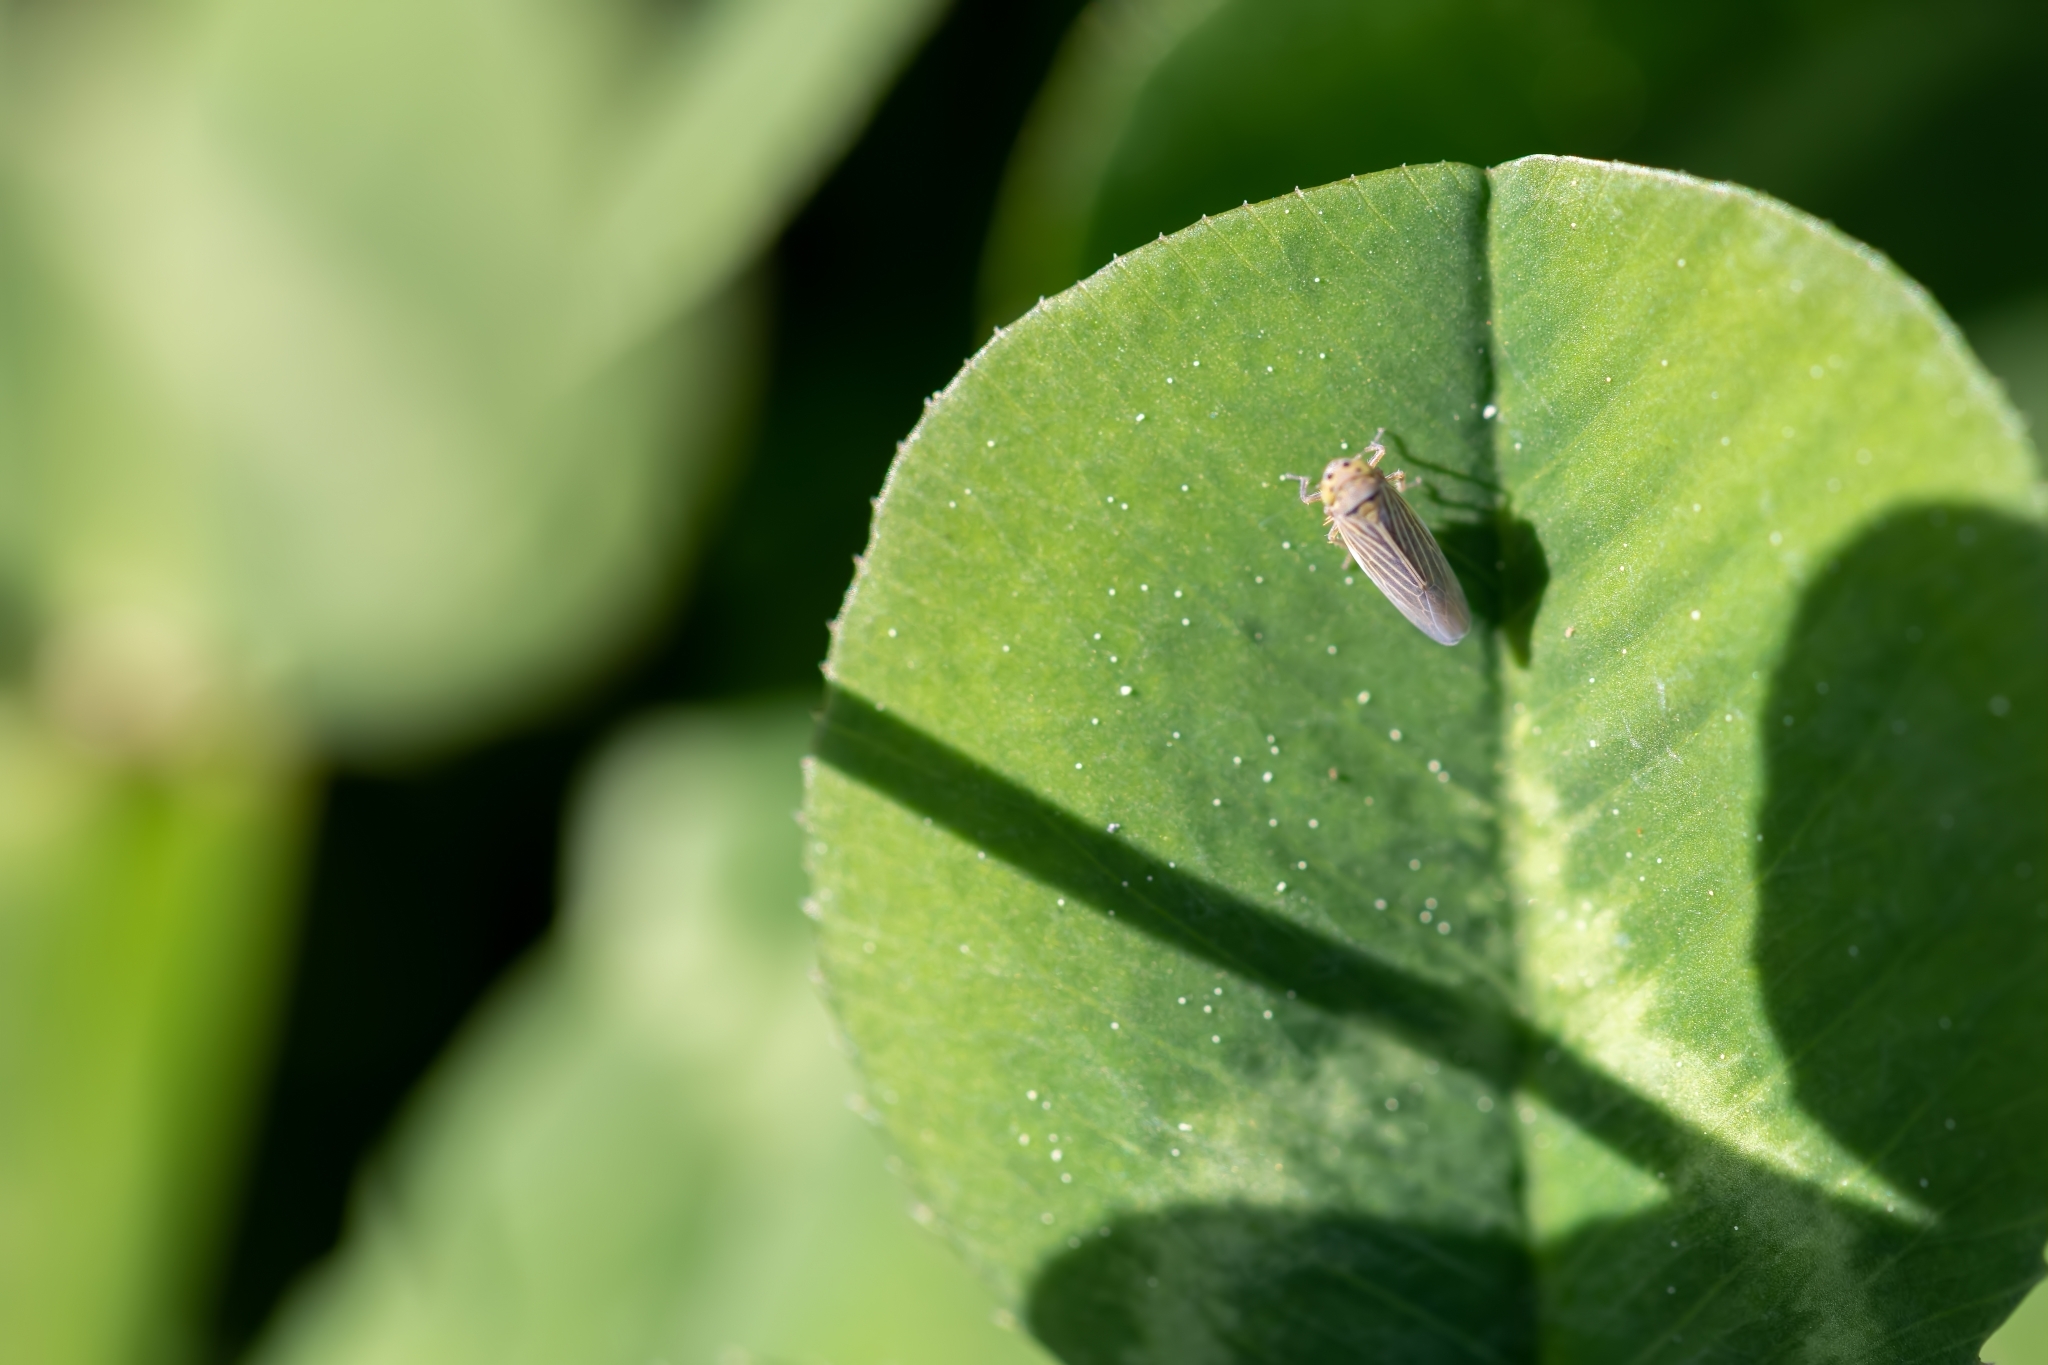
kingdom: Animalia
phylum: Arthropoda
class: Insecta
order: Hemiptera
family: Cicadellidae
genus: Graminella
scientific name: Graminella cognita
